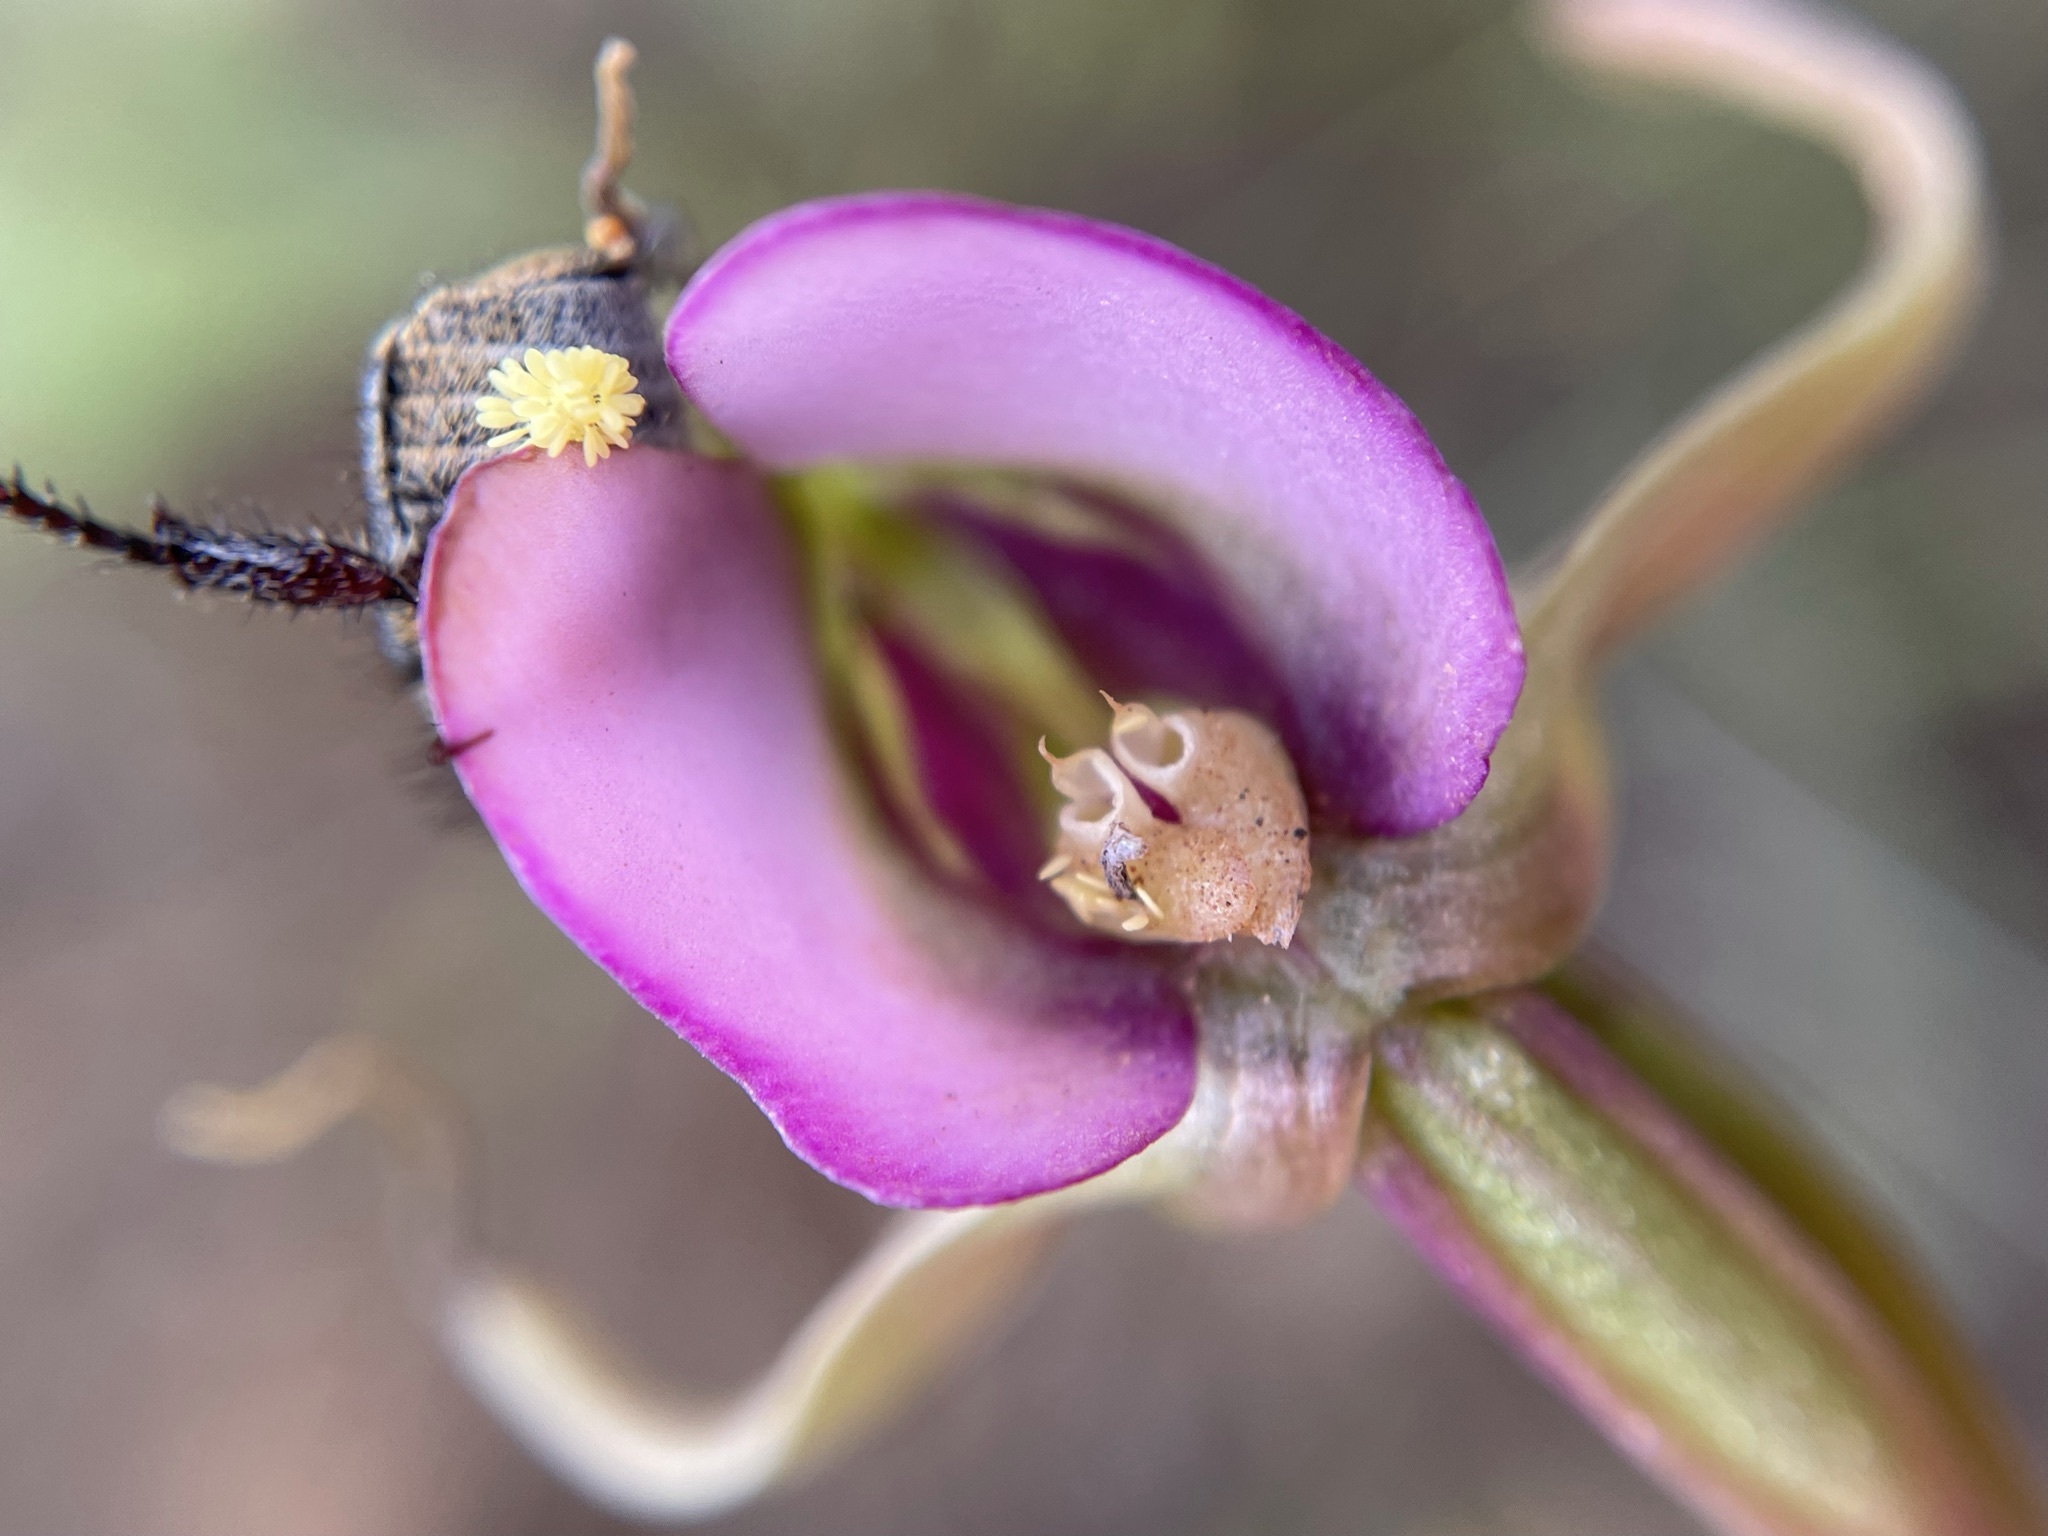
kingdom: Plantae
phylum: Tracheophyta
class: Liliopsida
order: Asparagales
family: Orchidaceae
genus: Disperis
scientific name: Disperis capensis
